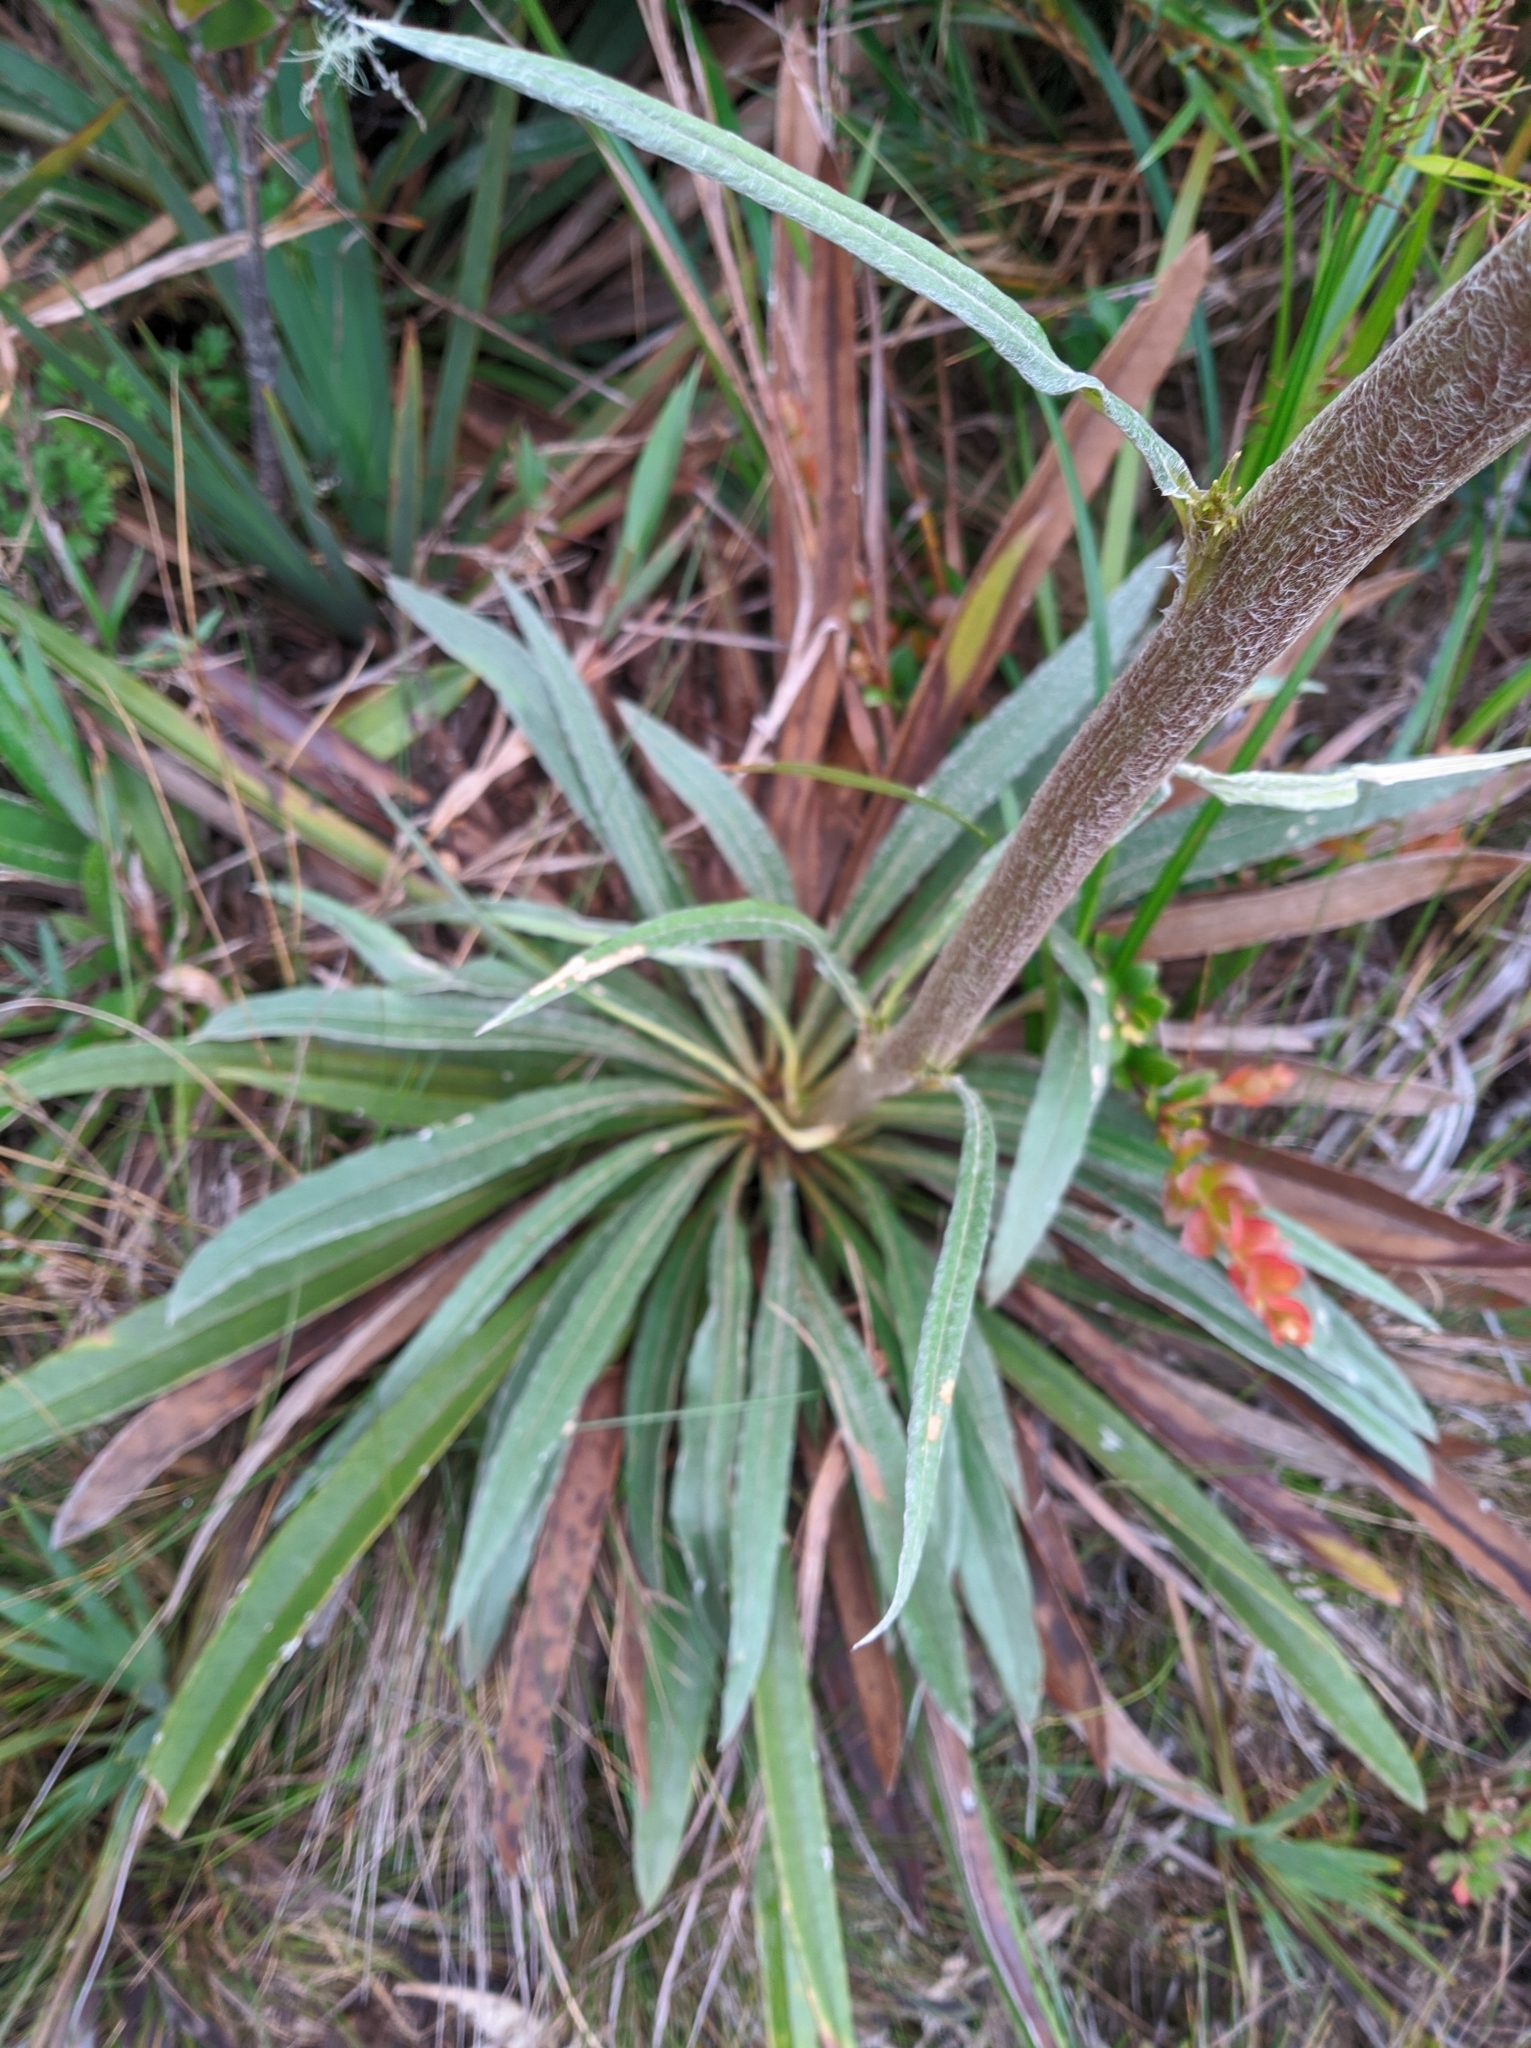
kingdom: Plantae
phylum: Tracheophyta
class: Magnoliopsida
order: Asterales
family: Asteraceae
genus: Espeletia
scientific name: Espeletia bracteosa
